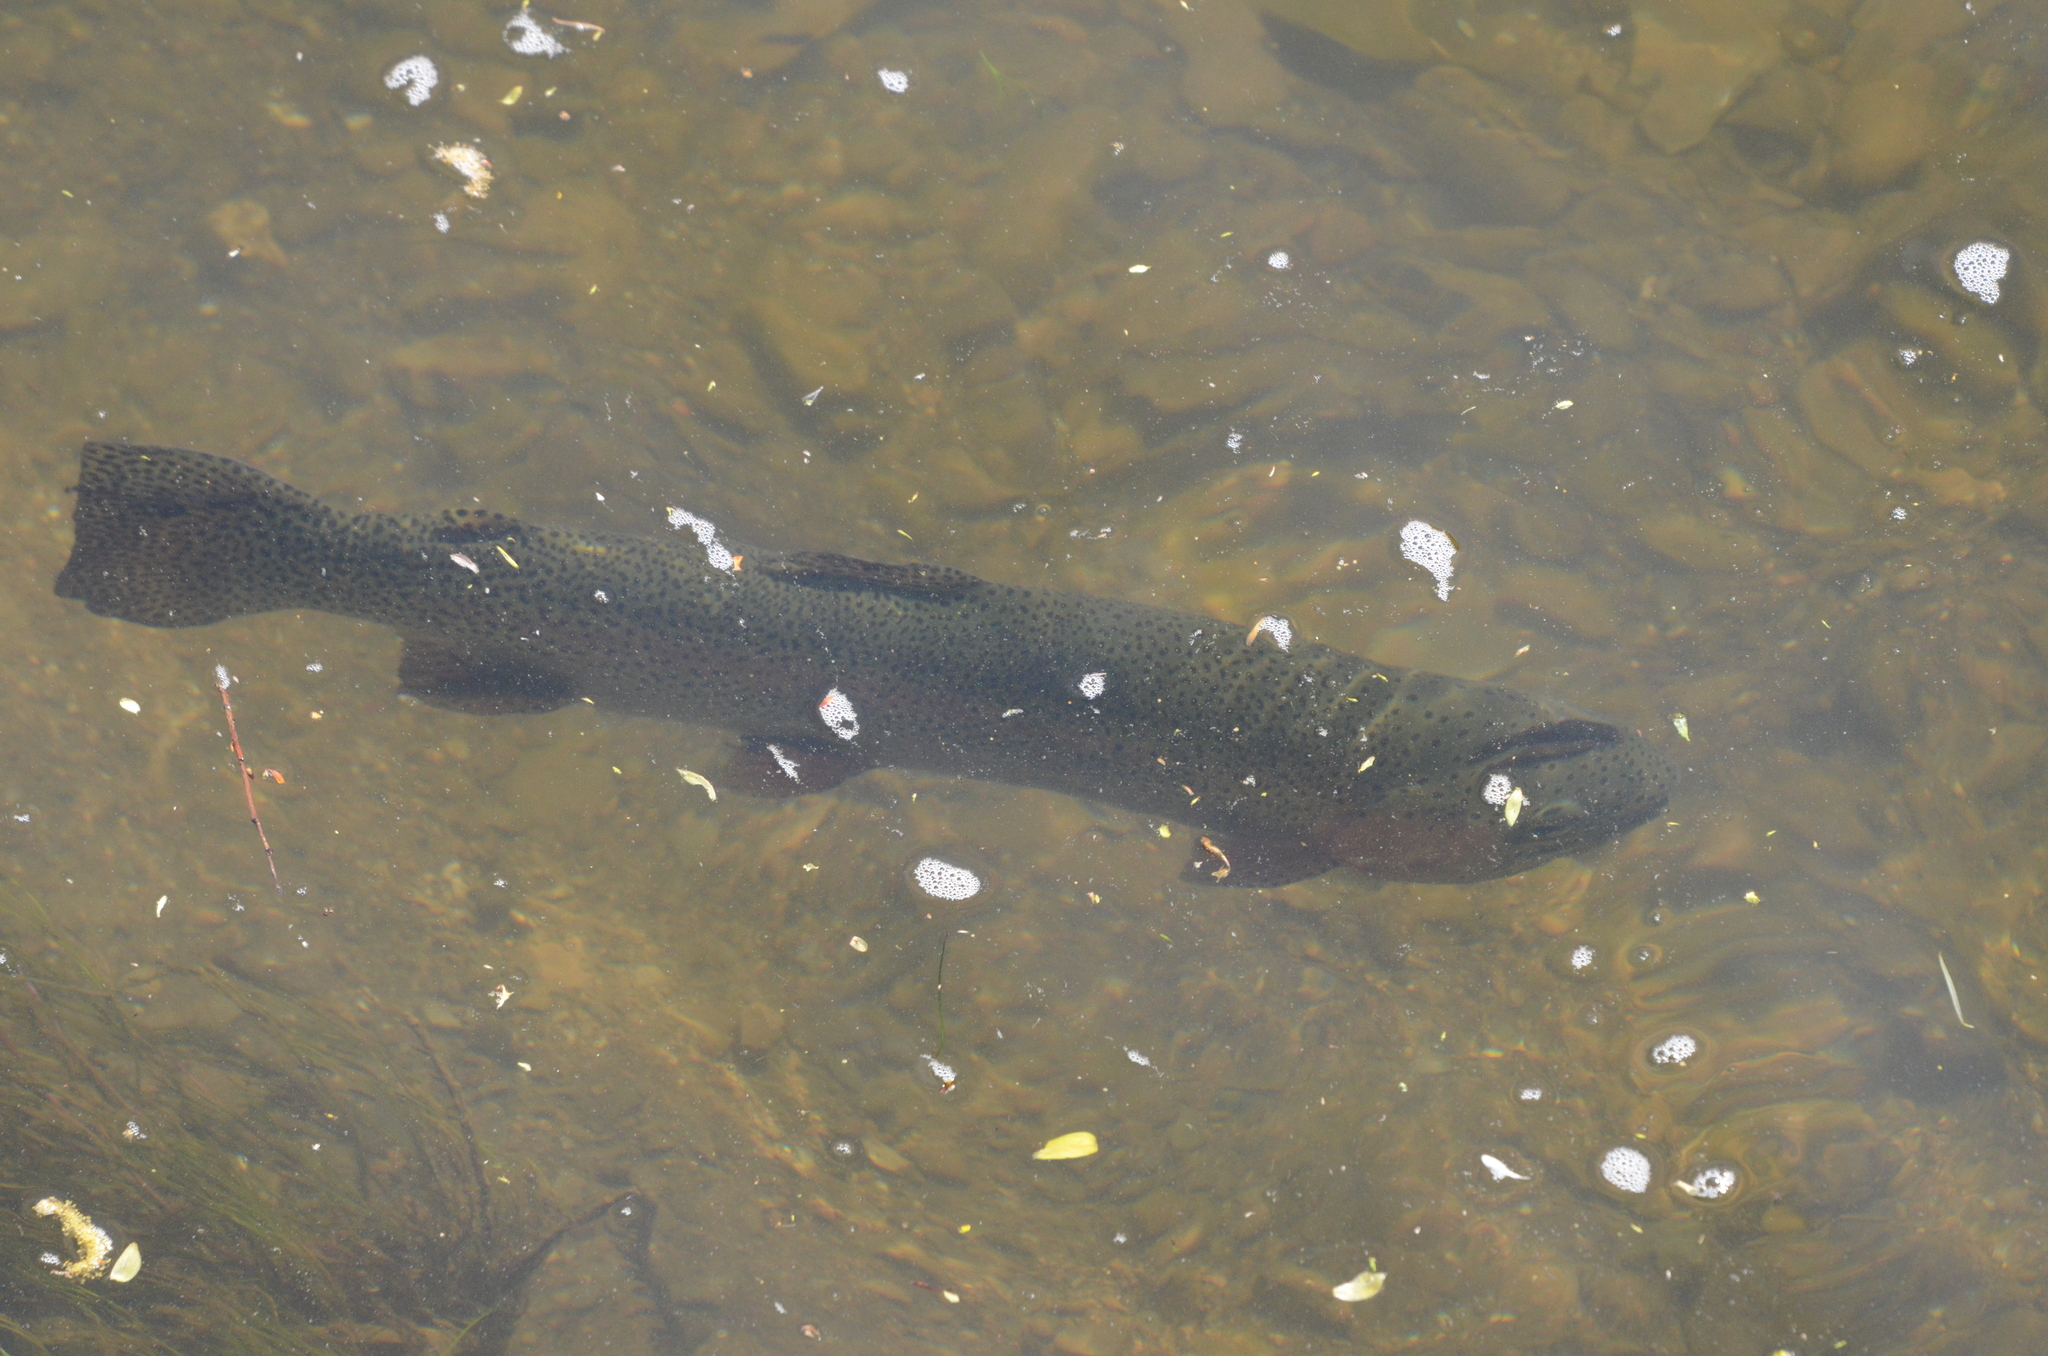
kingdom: Animalia
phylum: Chordata
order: Salmoniformes
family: Salmonidae
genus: Oncorhynchus
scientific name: Oncorhynchus mykiss
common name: Rainbow trout
